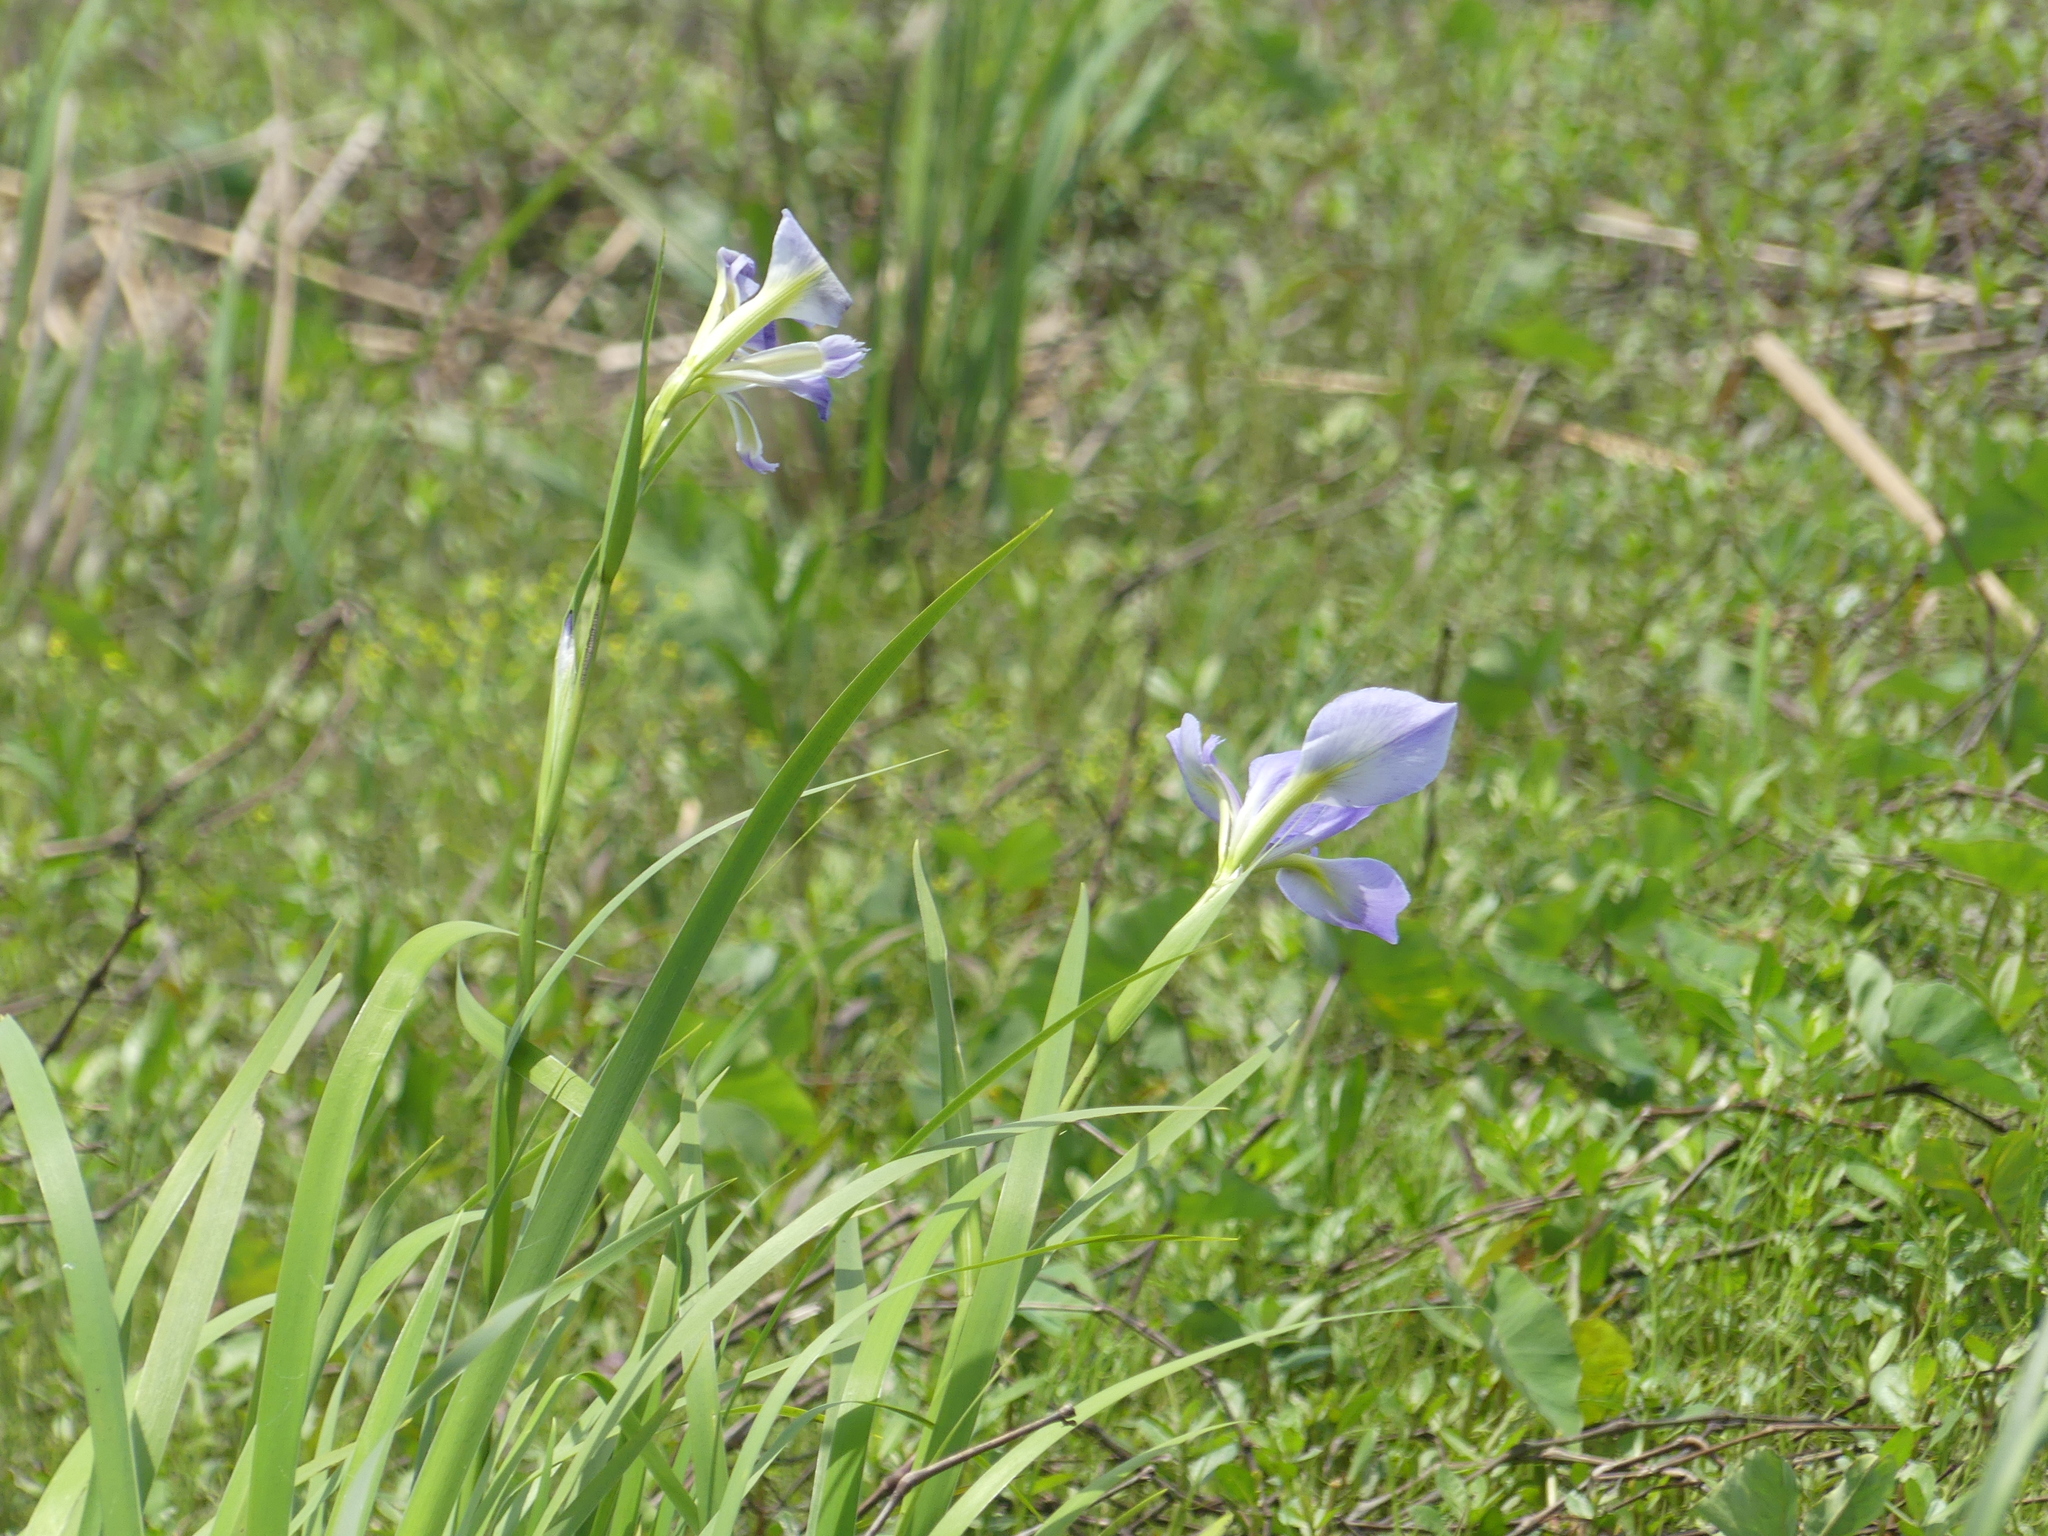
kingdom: Plantae
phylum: Tracheophyta
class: Liliopsida
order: Asparagales
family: Iridaceae
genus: Iris
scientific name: Iris giganticaerulea
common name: Giant blue iris
